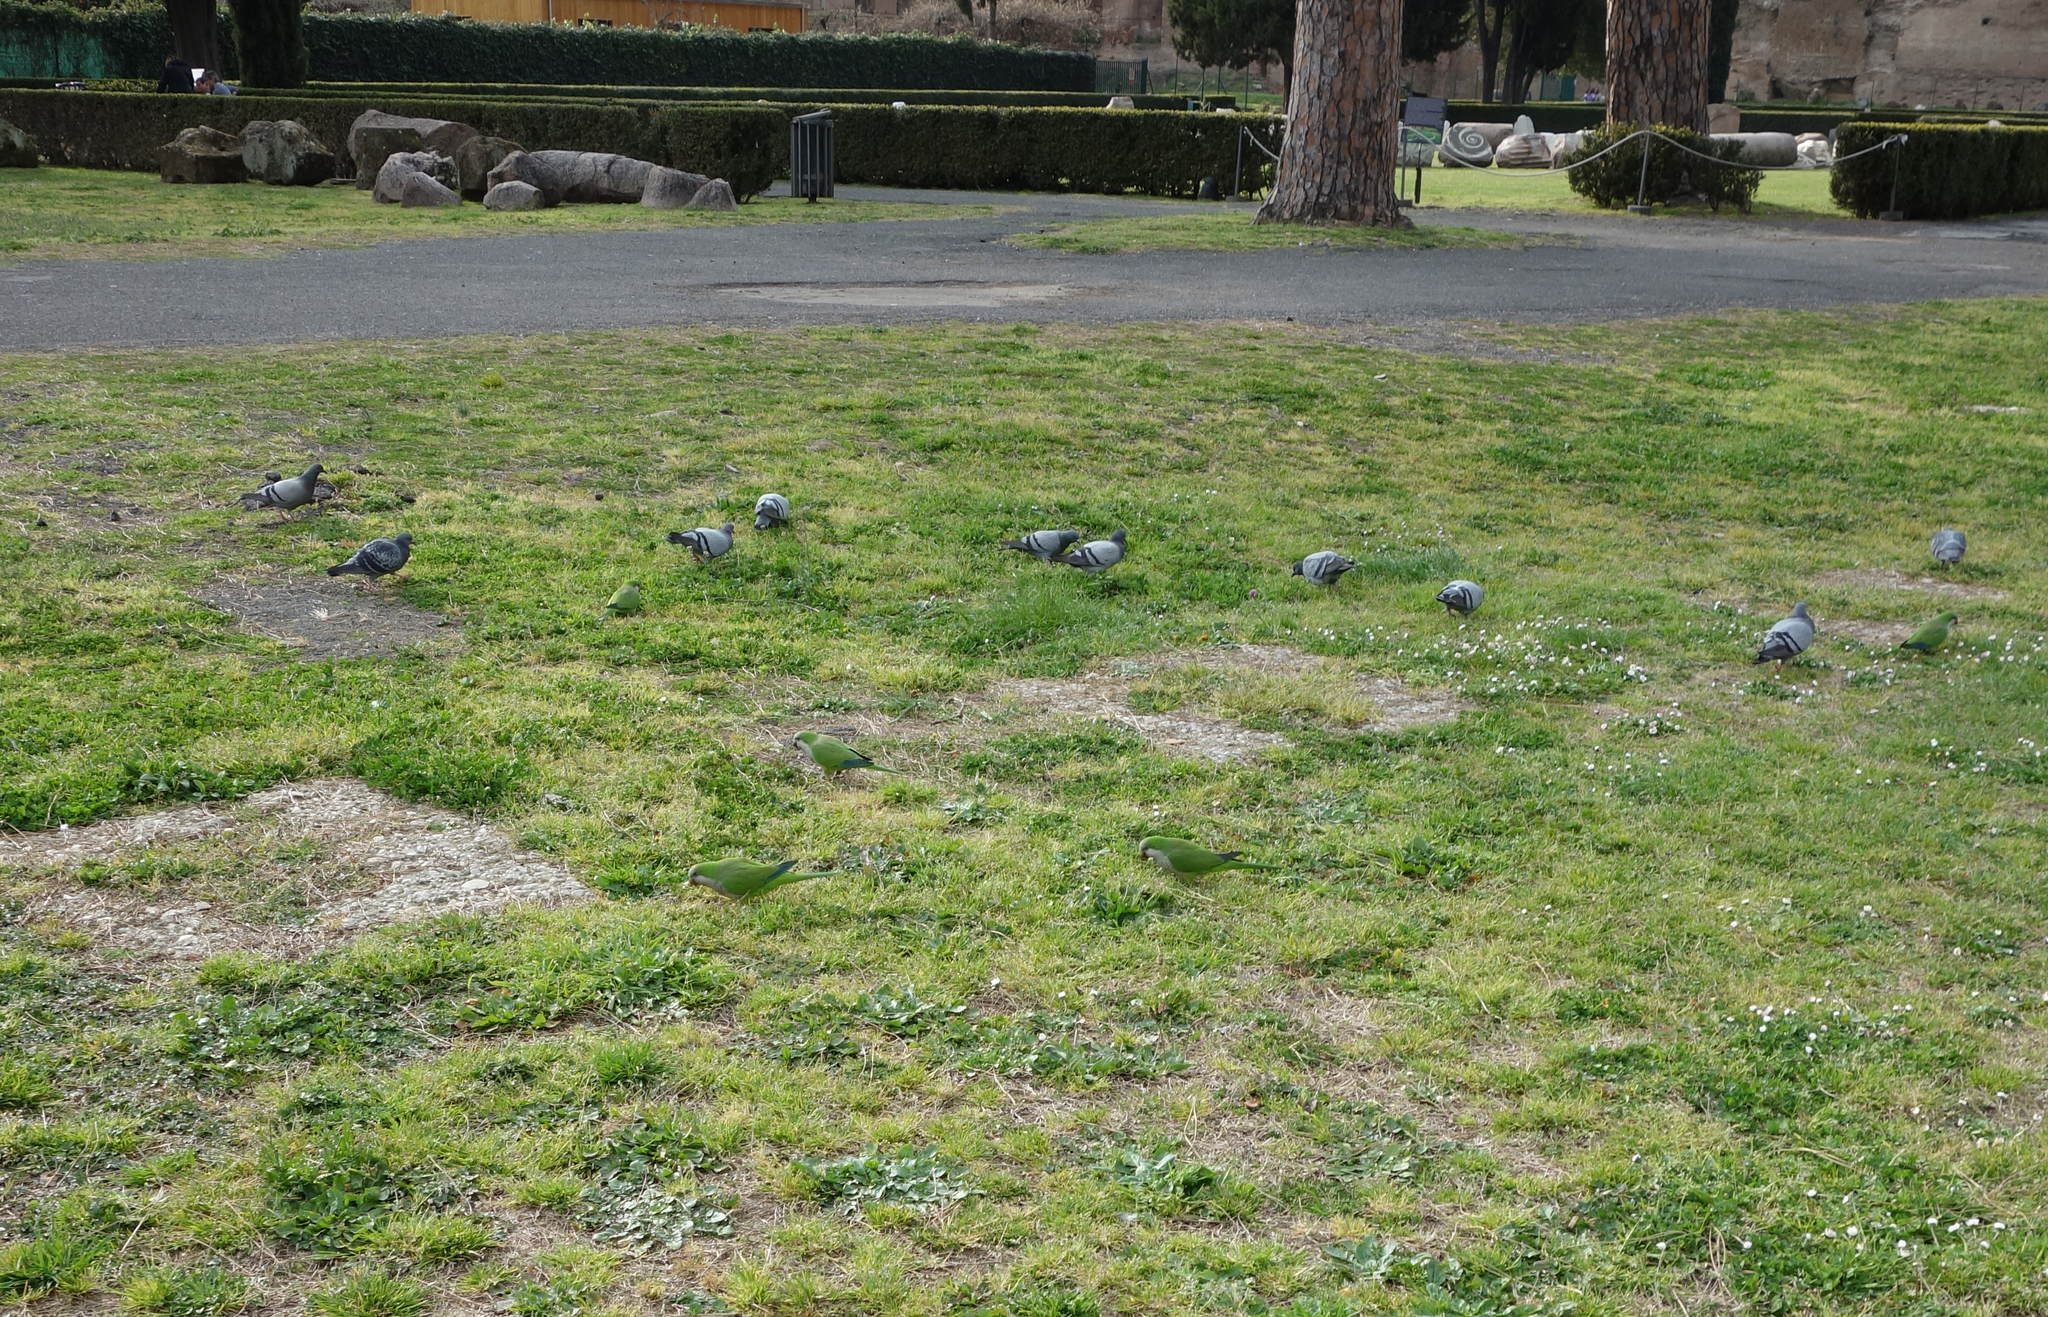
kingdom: Animalia
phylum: Chordata
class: Aves
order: Psittaciformes
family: Psittacidae
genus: Myiopsitta
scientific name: Myiopsitta monachus
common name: Monk parakeet
